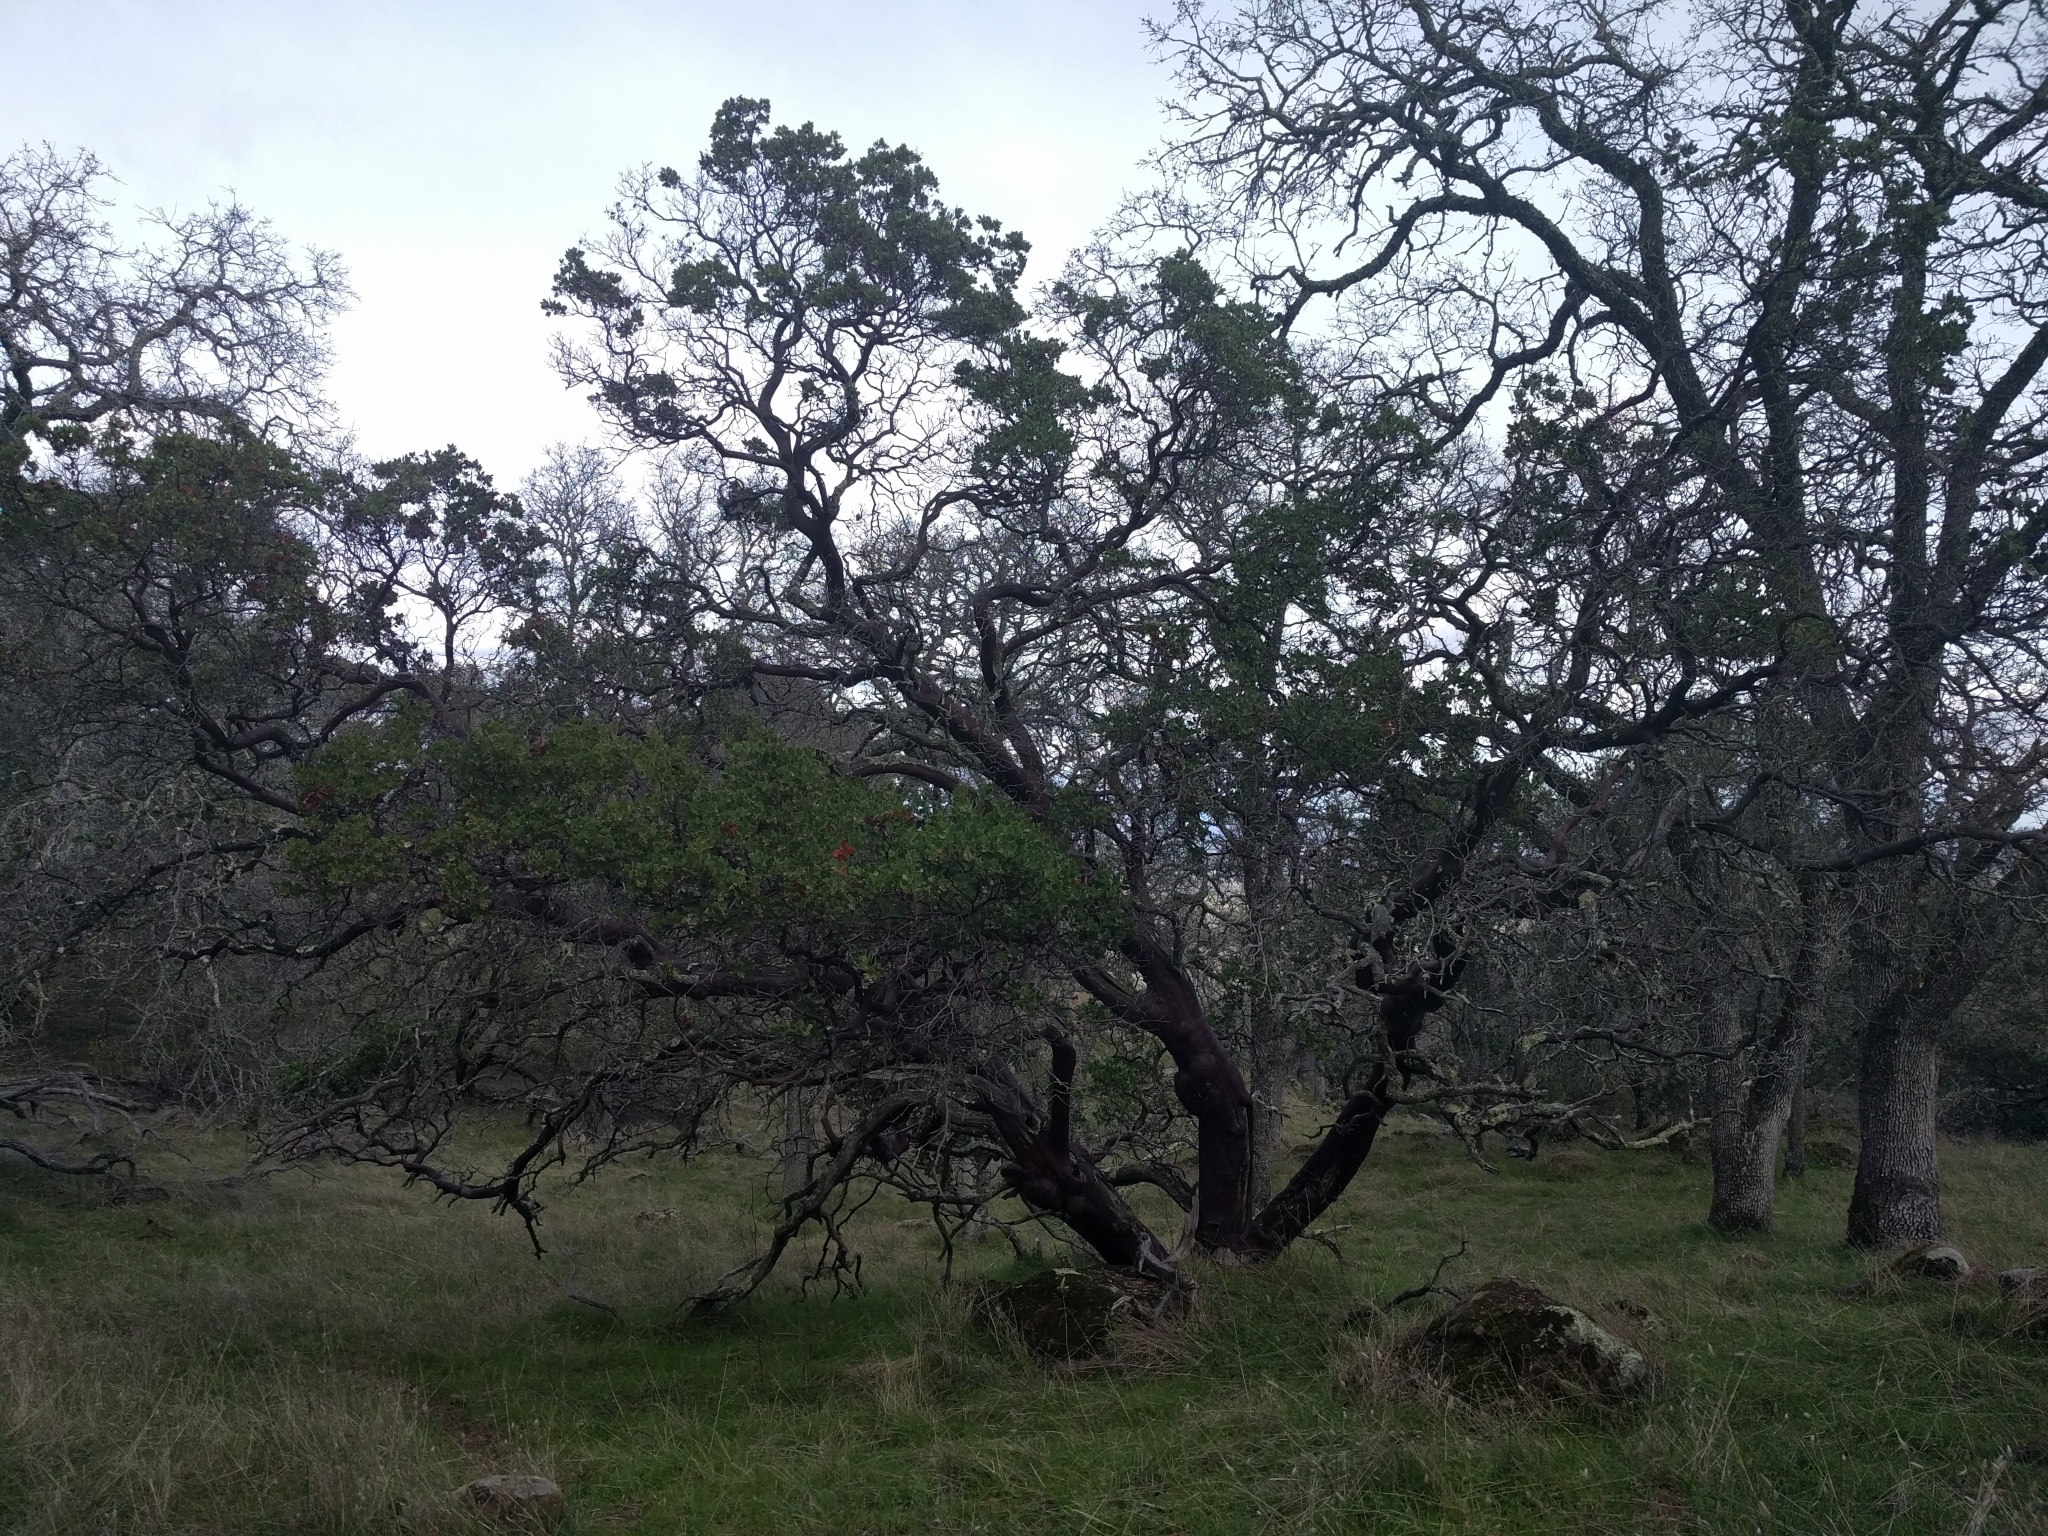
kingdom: Plantae
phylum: Tracheophyta
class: Magnoliopsida
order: Ericales
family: Ericaceae
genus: Arctostaphylos
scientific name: Arctostaphylos manzanita
